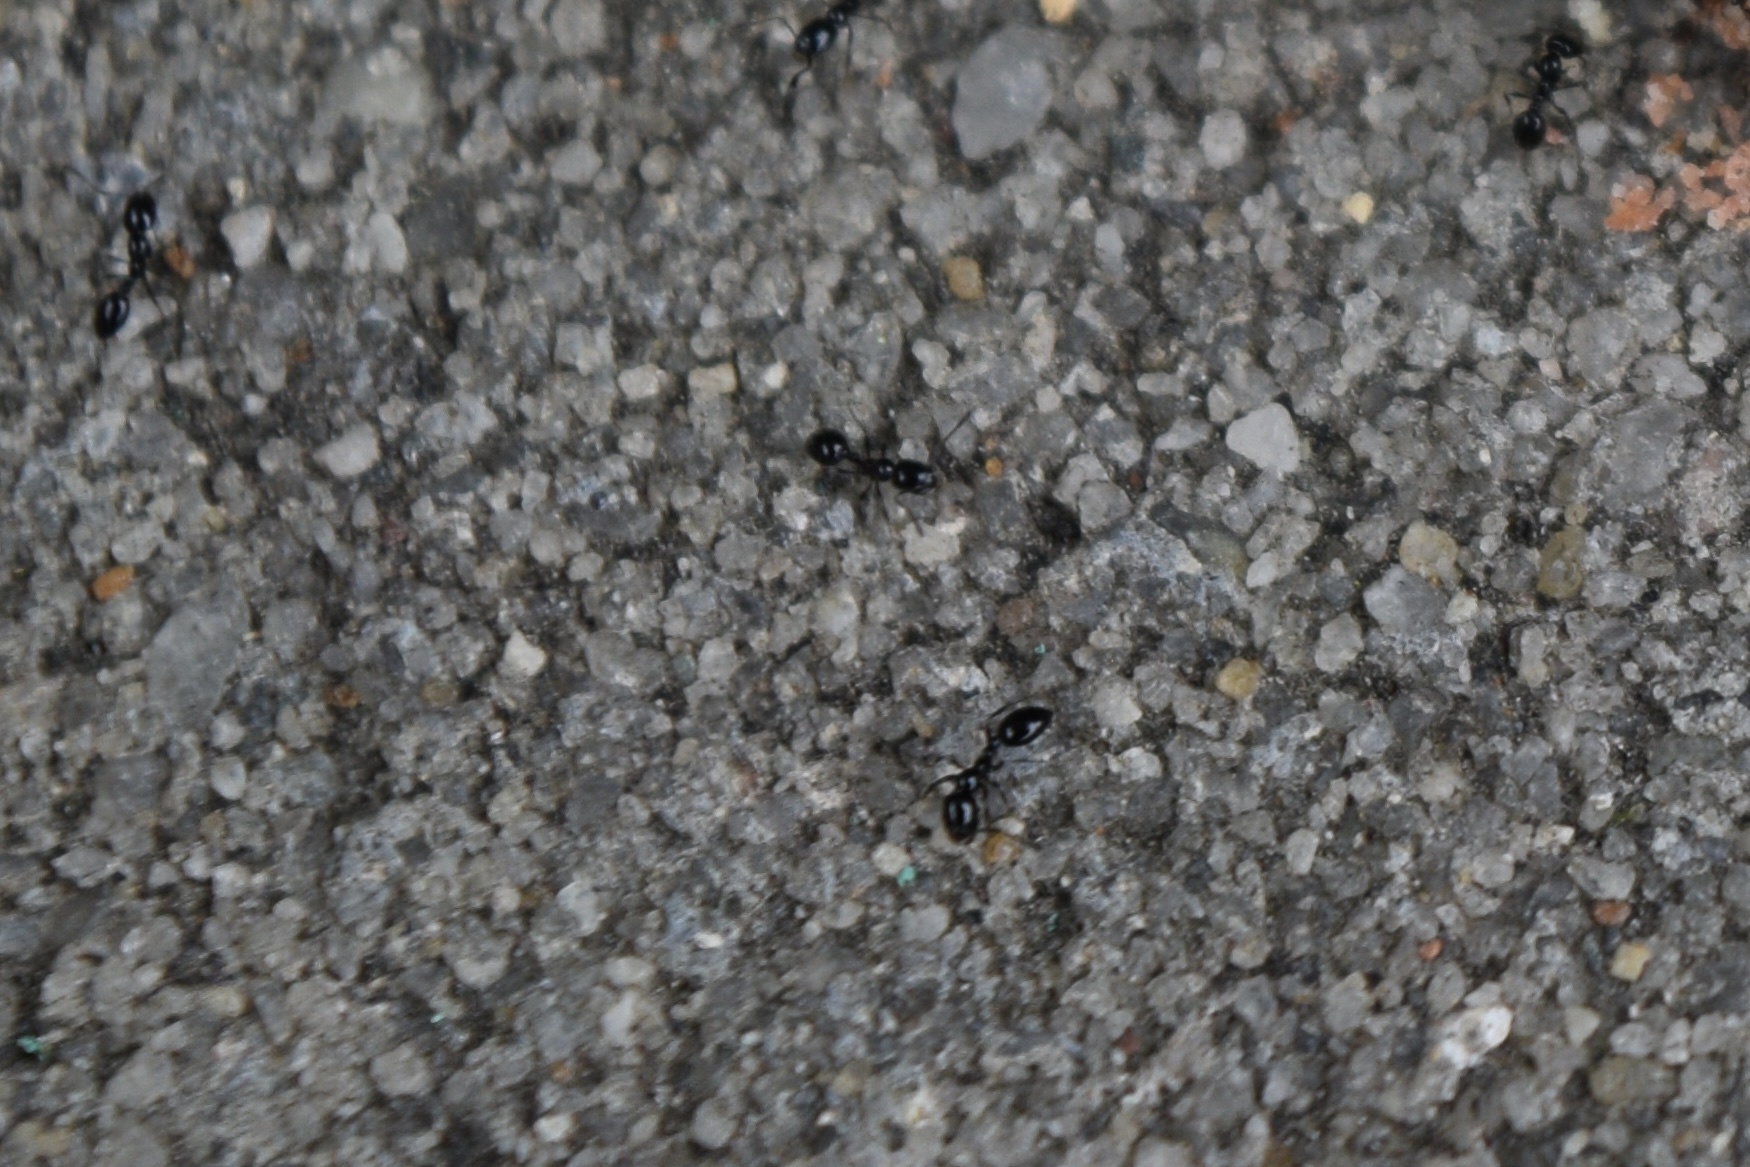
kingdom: Animalia
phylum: Arthropoda
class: Insecta
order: Hymenoptera
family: Formicidae
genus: Monomorium
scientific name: Monomorium minimum
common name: Little black ant
